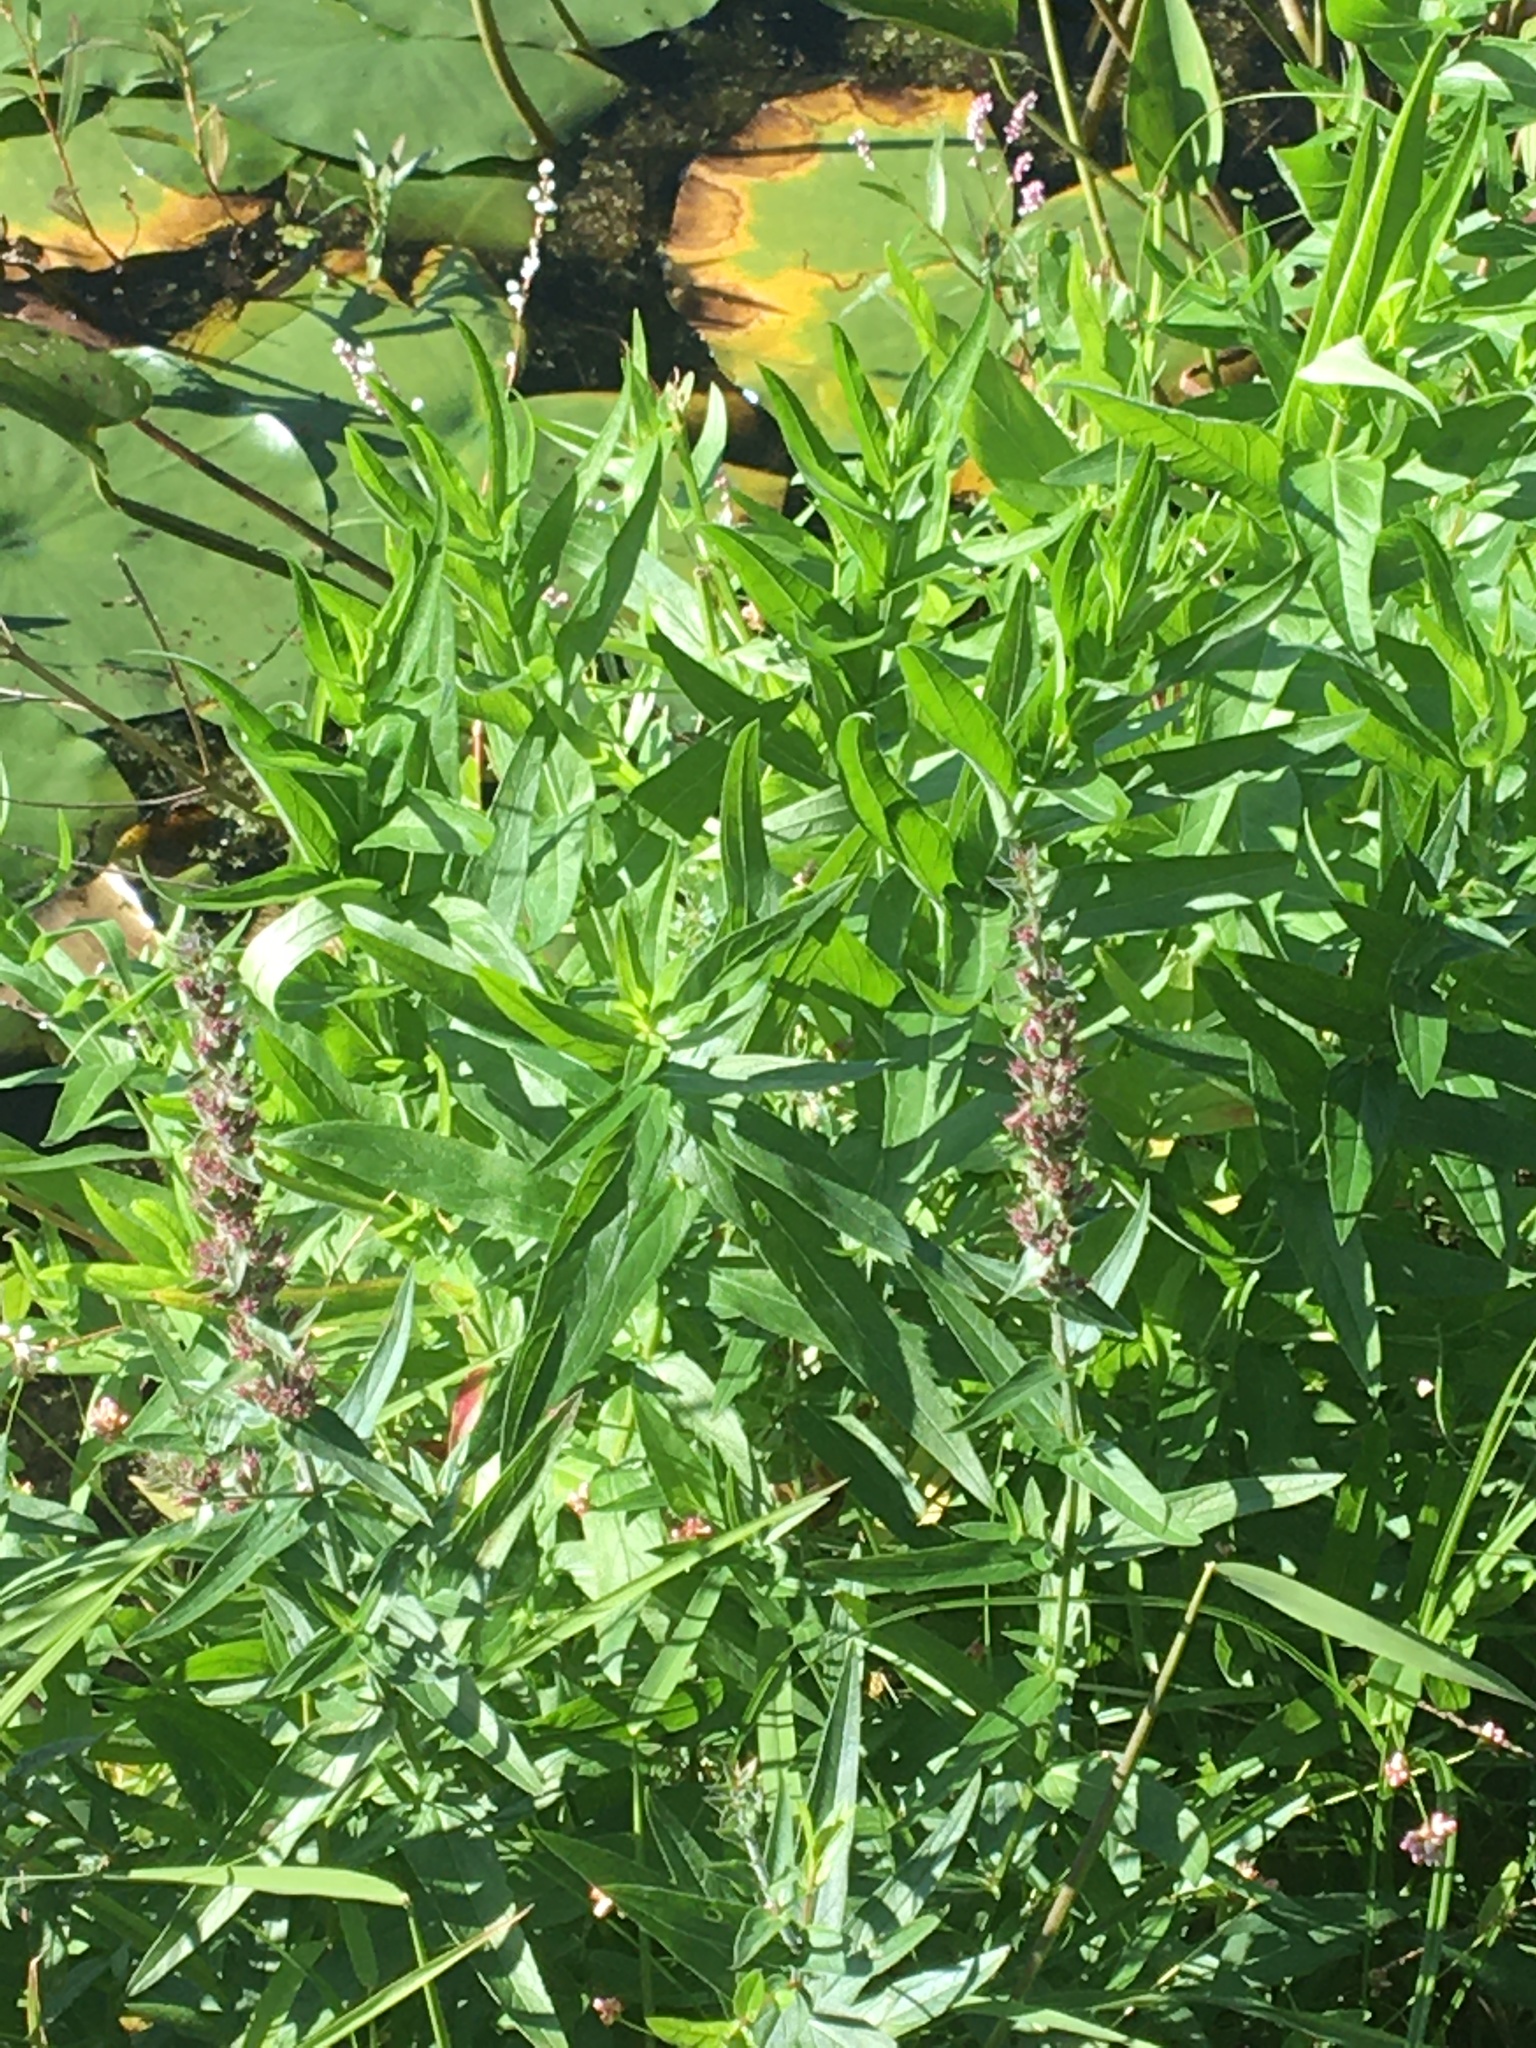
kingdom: Plantae
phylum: Tracheophyta
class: Magnoliopsida
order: Myrtales
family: Lythraceae
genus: Lythrum
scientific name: Lythrum salicaria
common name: Purple loosestrife
